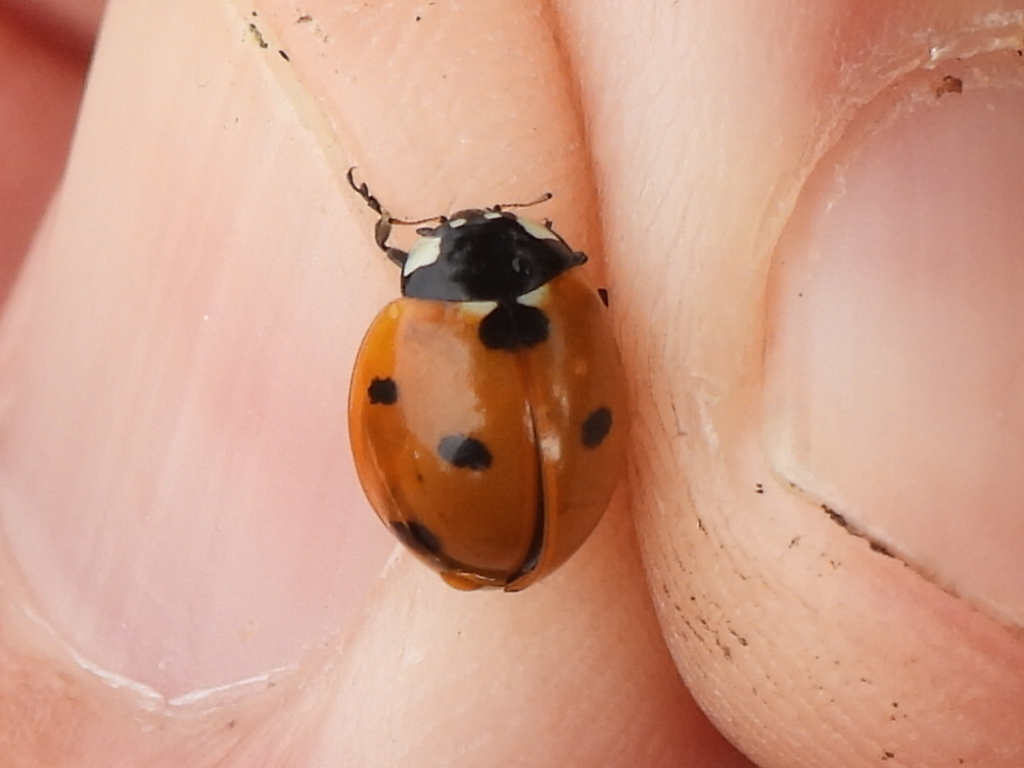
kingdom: Animalia
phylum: Arthropoda
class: Insecta
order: Coleoptera
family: Coccinellidae
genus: Coccinella
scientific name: Coccinella septempunctata
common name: Sevenspotted lady beetle
